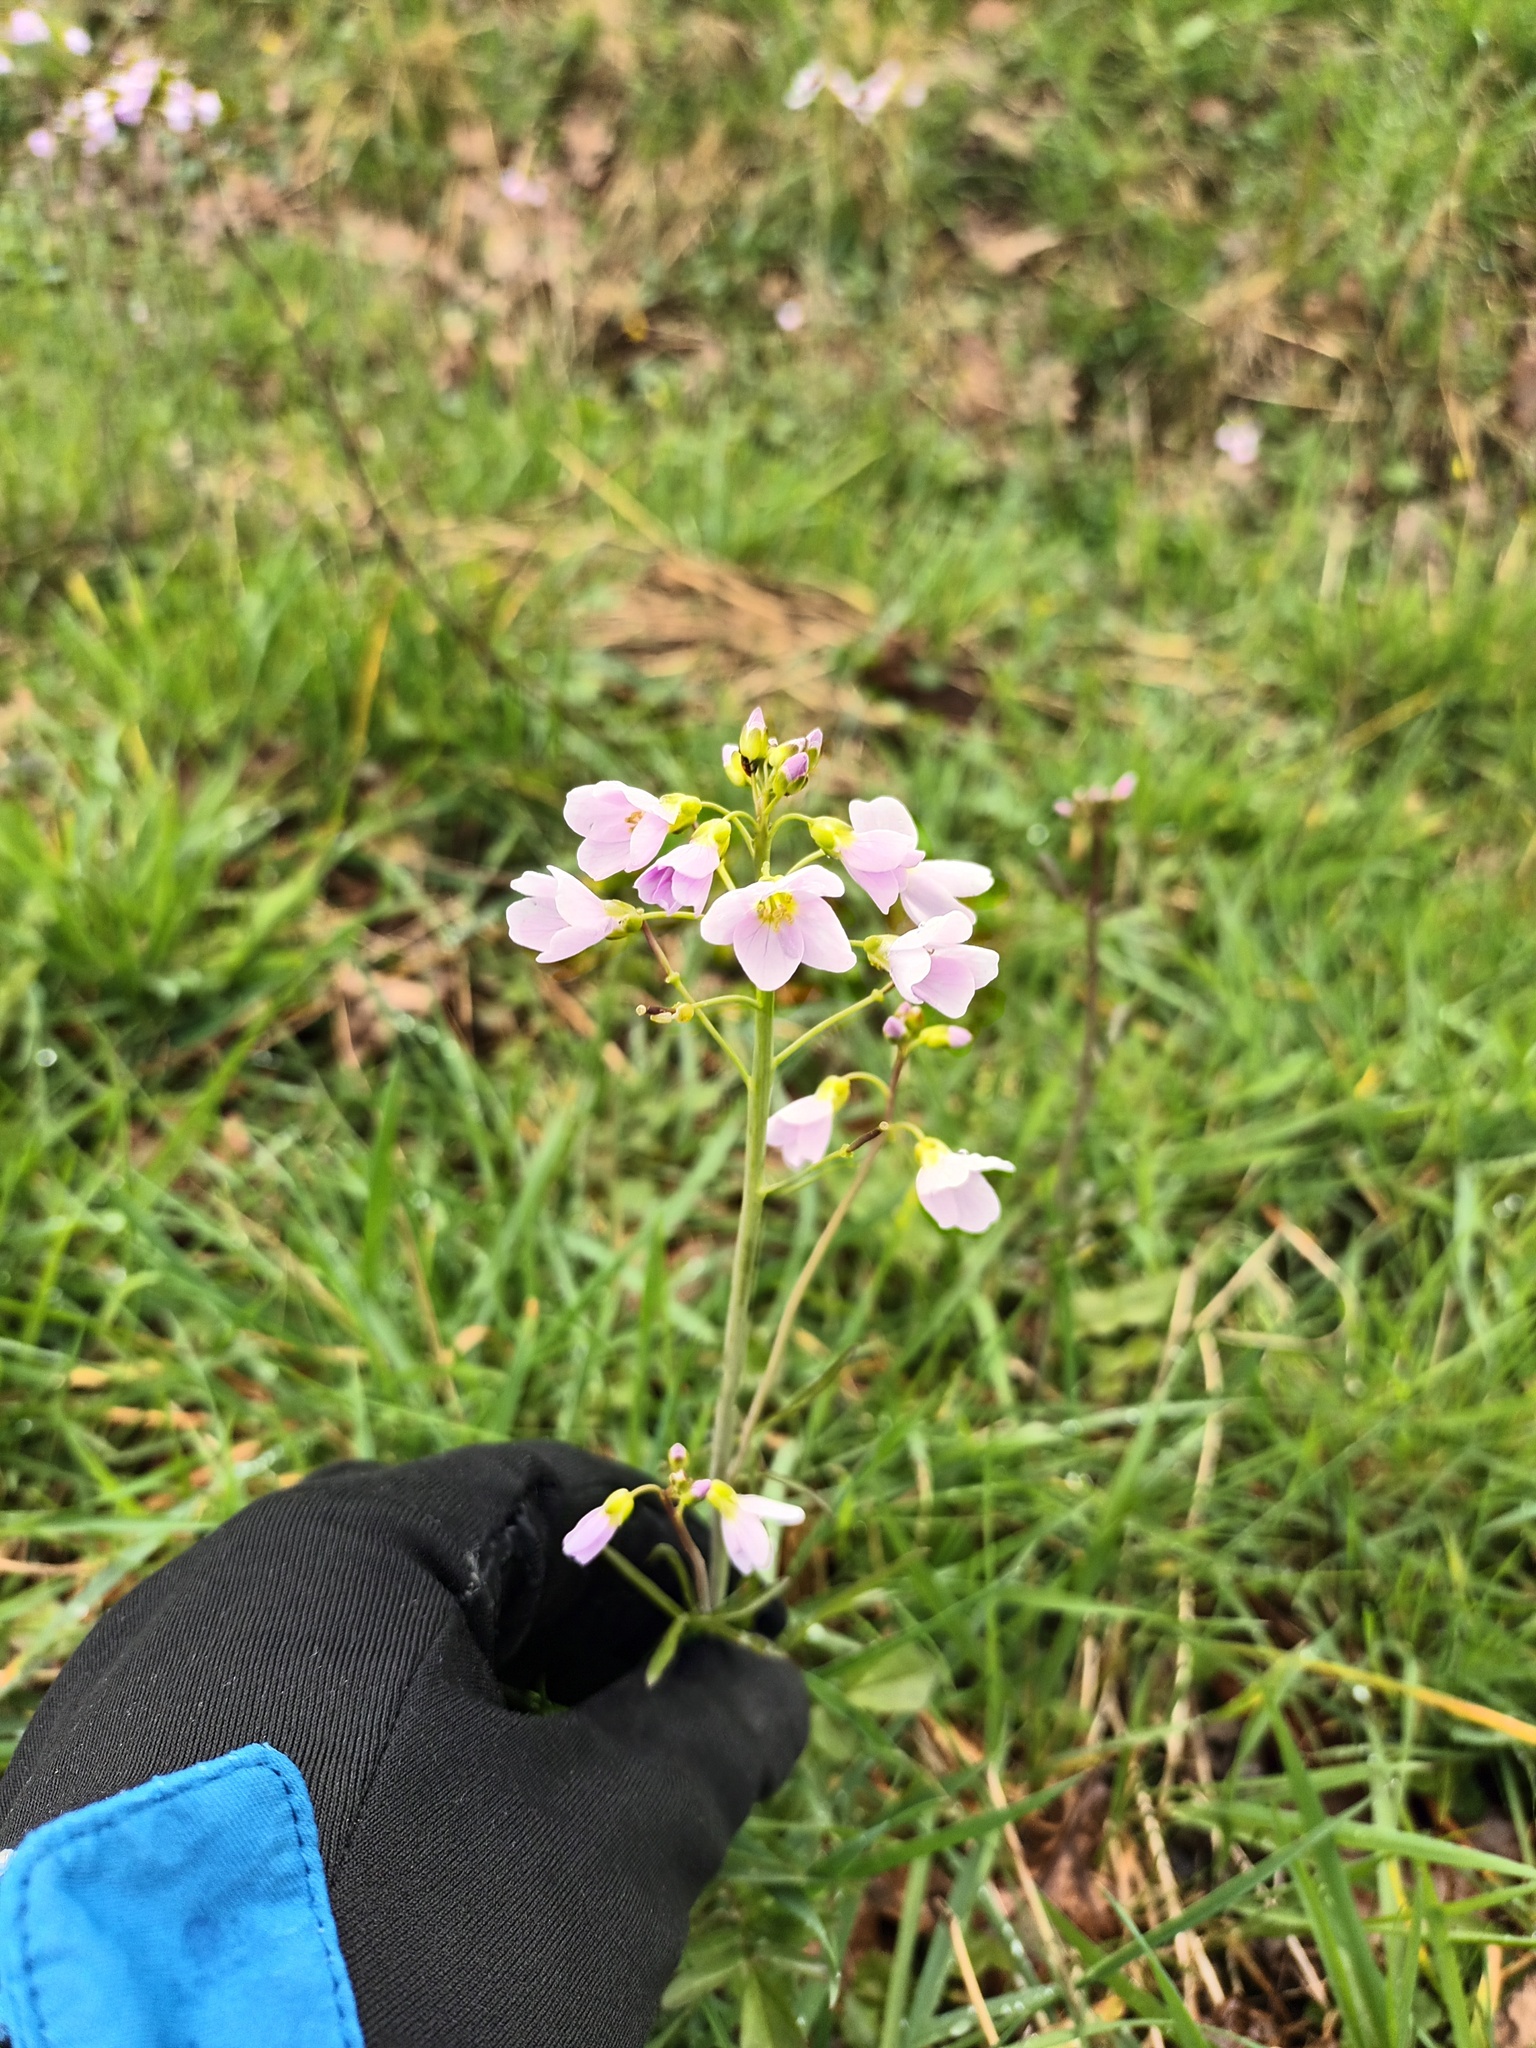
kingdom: Plantae
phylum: Tracheophyta
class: Magnoliopsida
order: Brassicales
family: Brassicaceae
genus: Cardamine
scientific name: Cardamine pratensis
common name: Cuckoo flower
